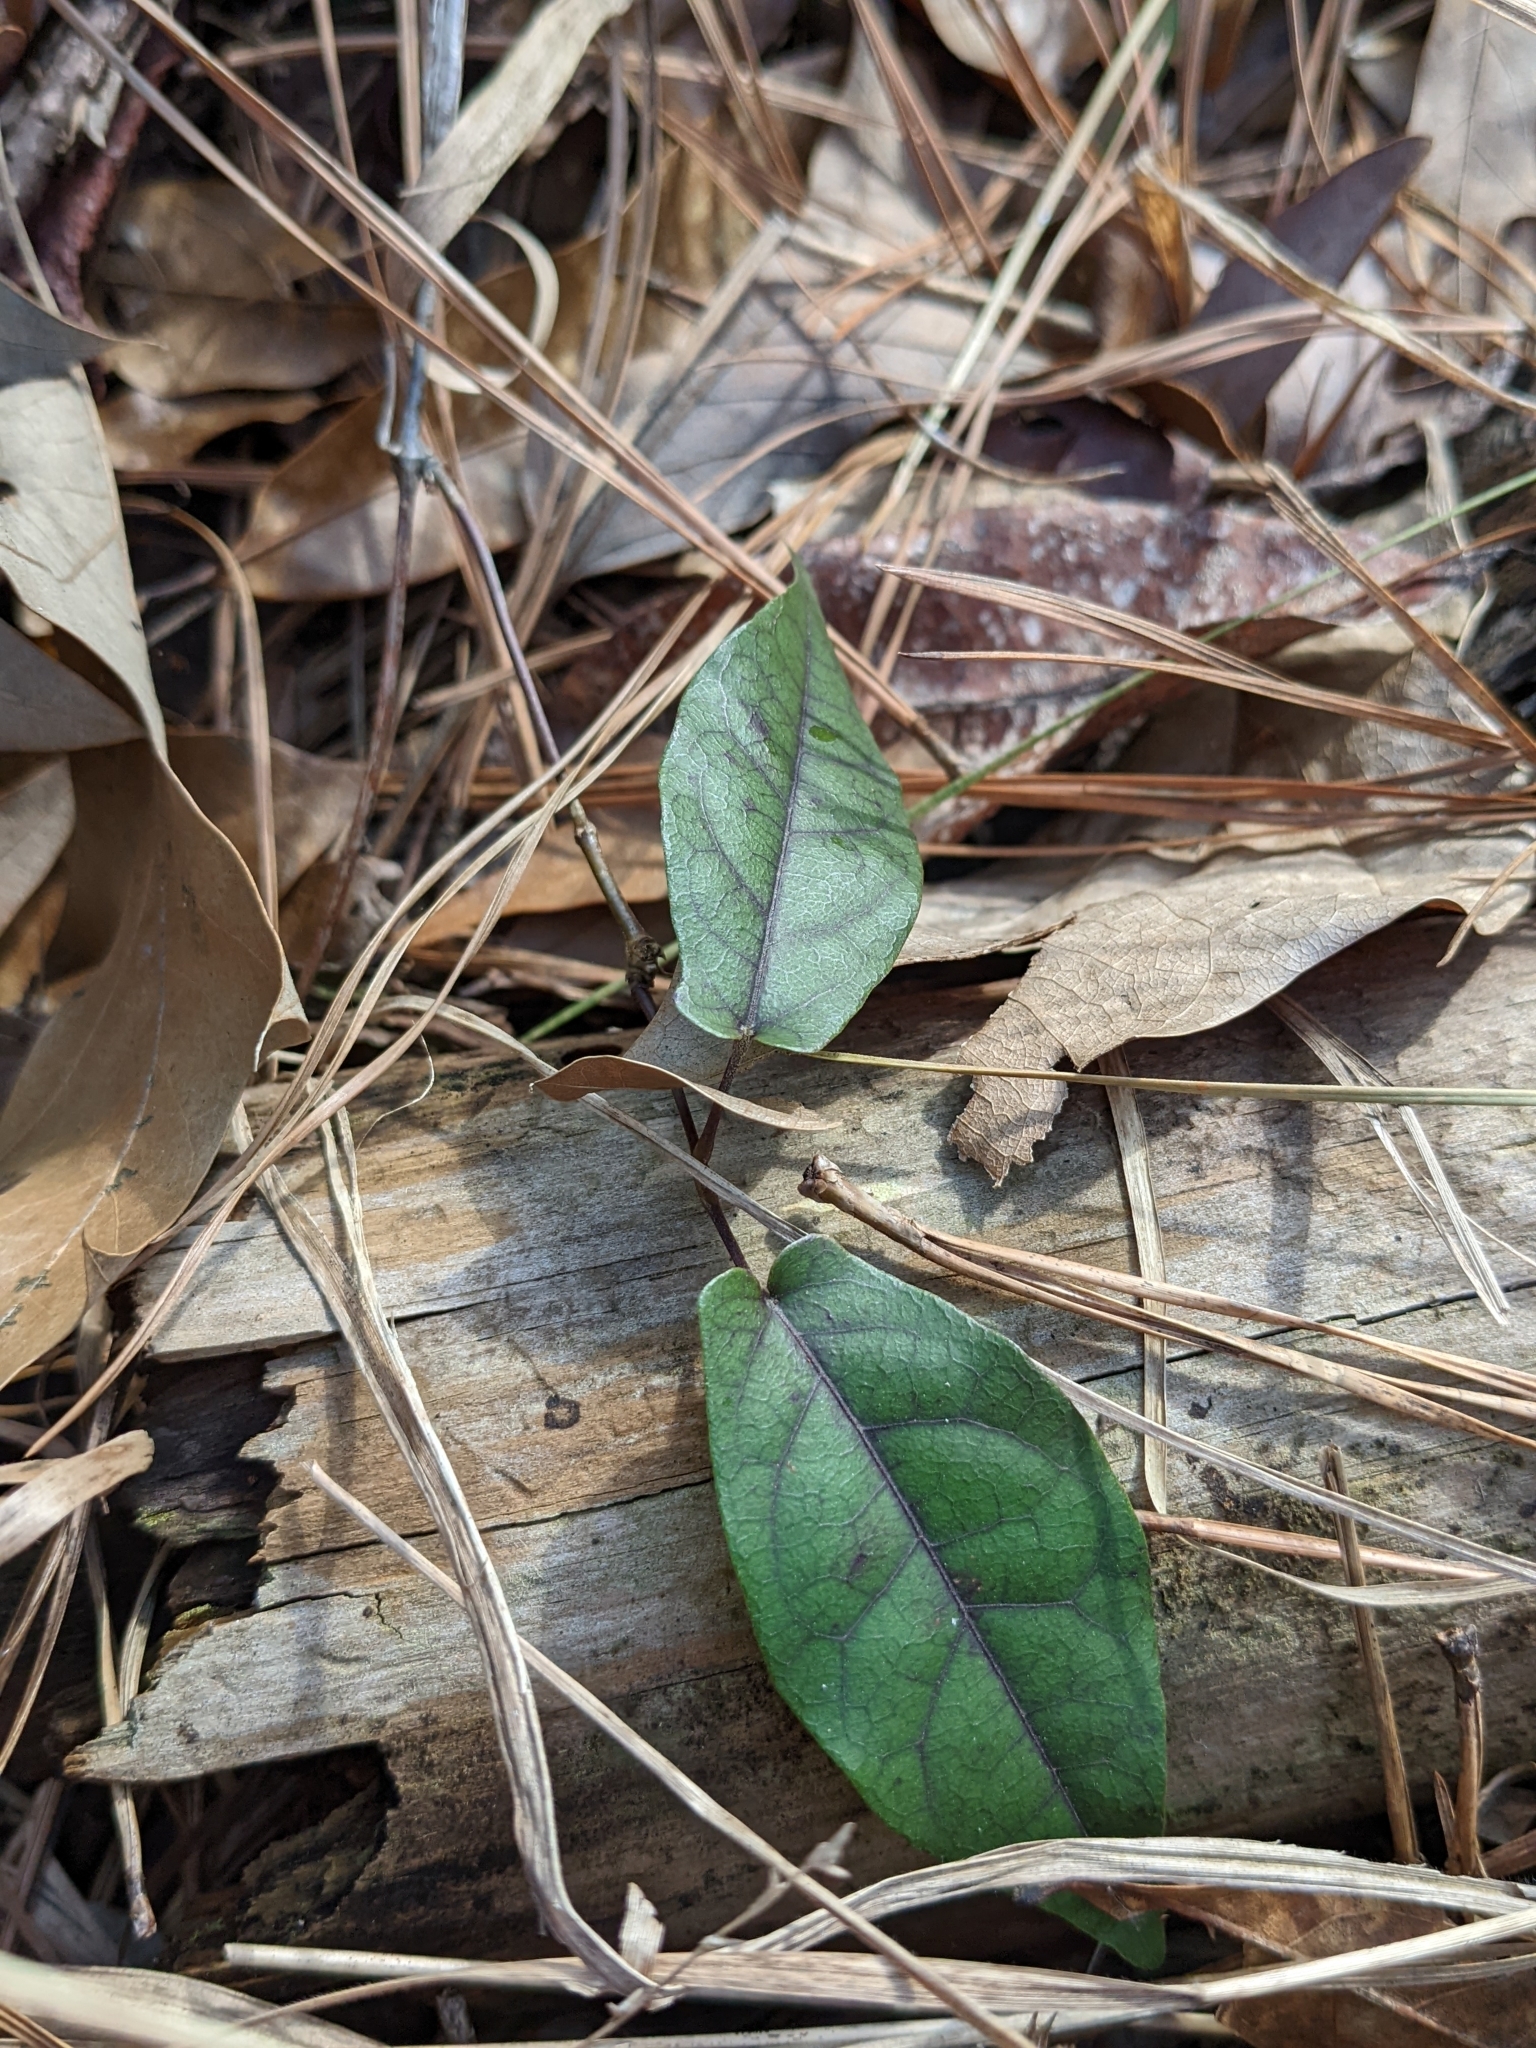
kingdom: Plantae
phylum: Tracheophyta
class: Magnoliopsida
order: Lamiales
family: Bignoniaceae
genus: Bignonia
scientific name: Bignonia capreolata
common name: Crossvine
